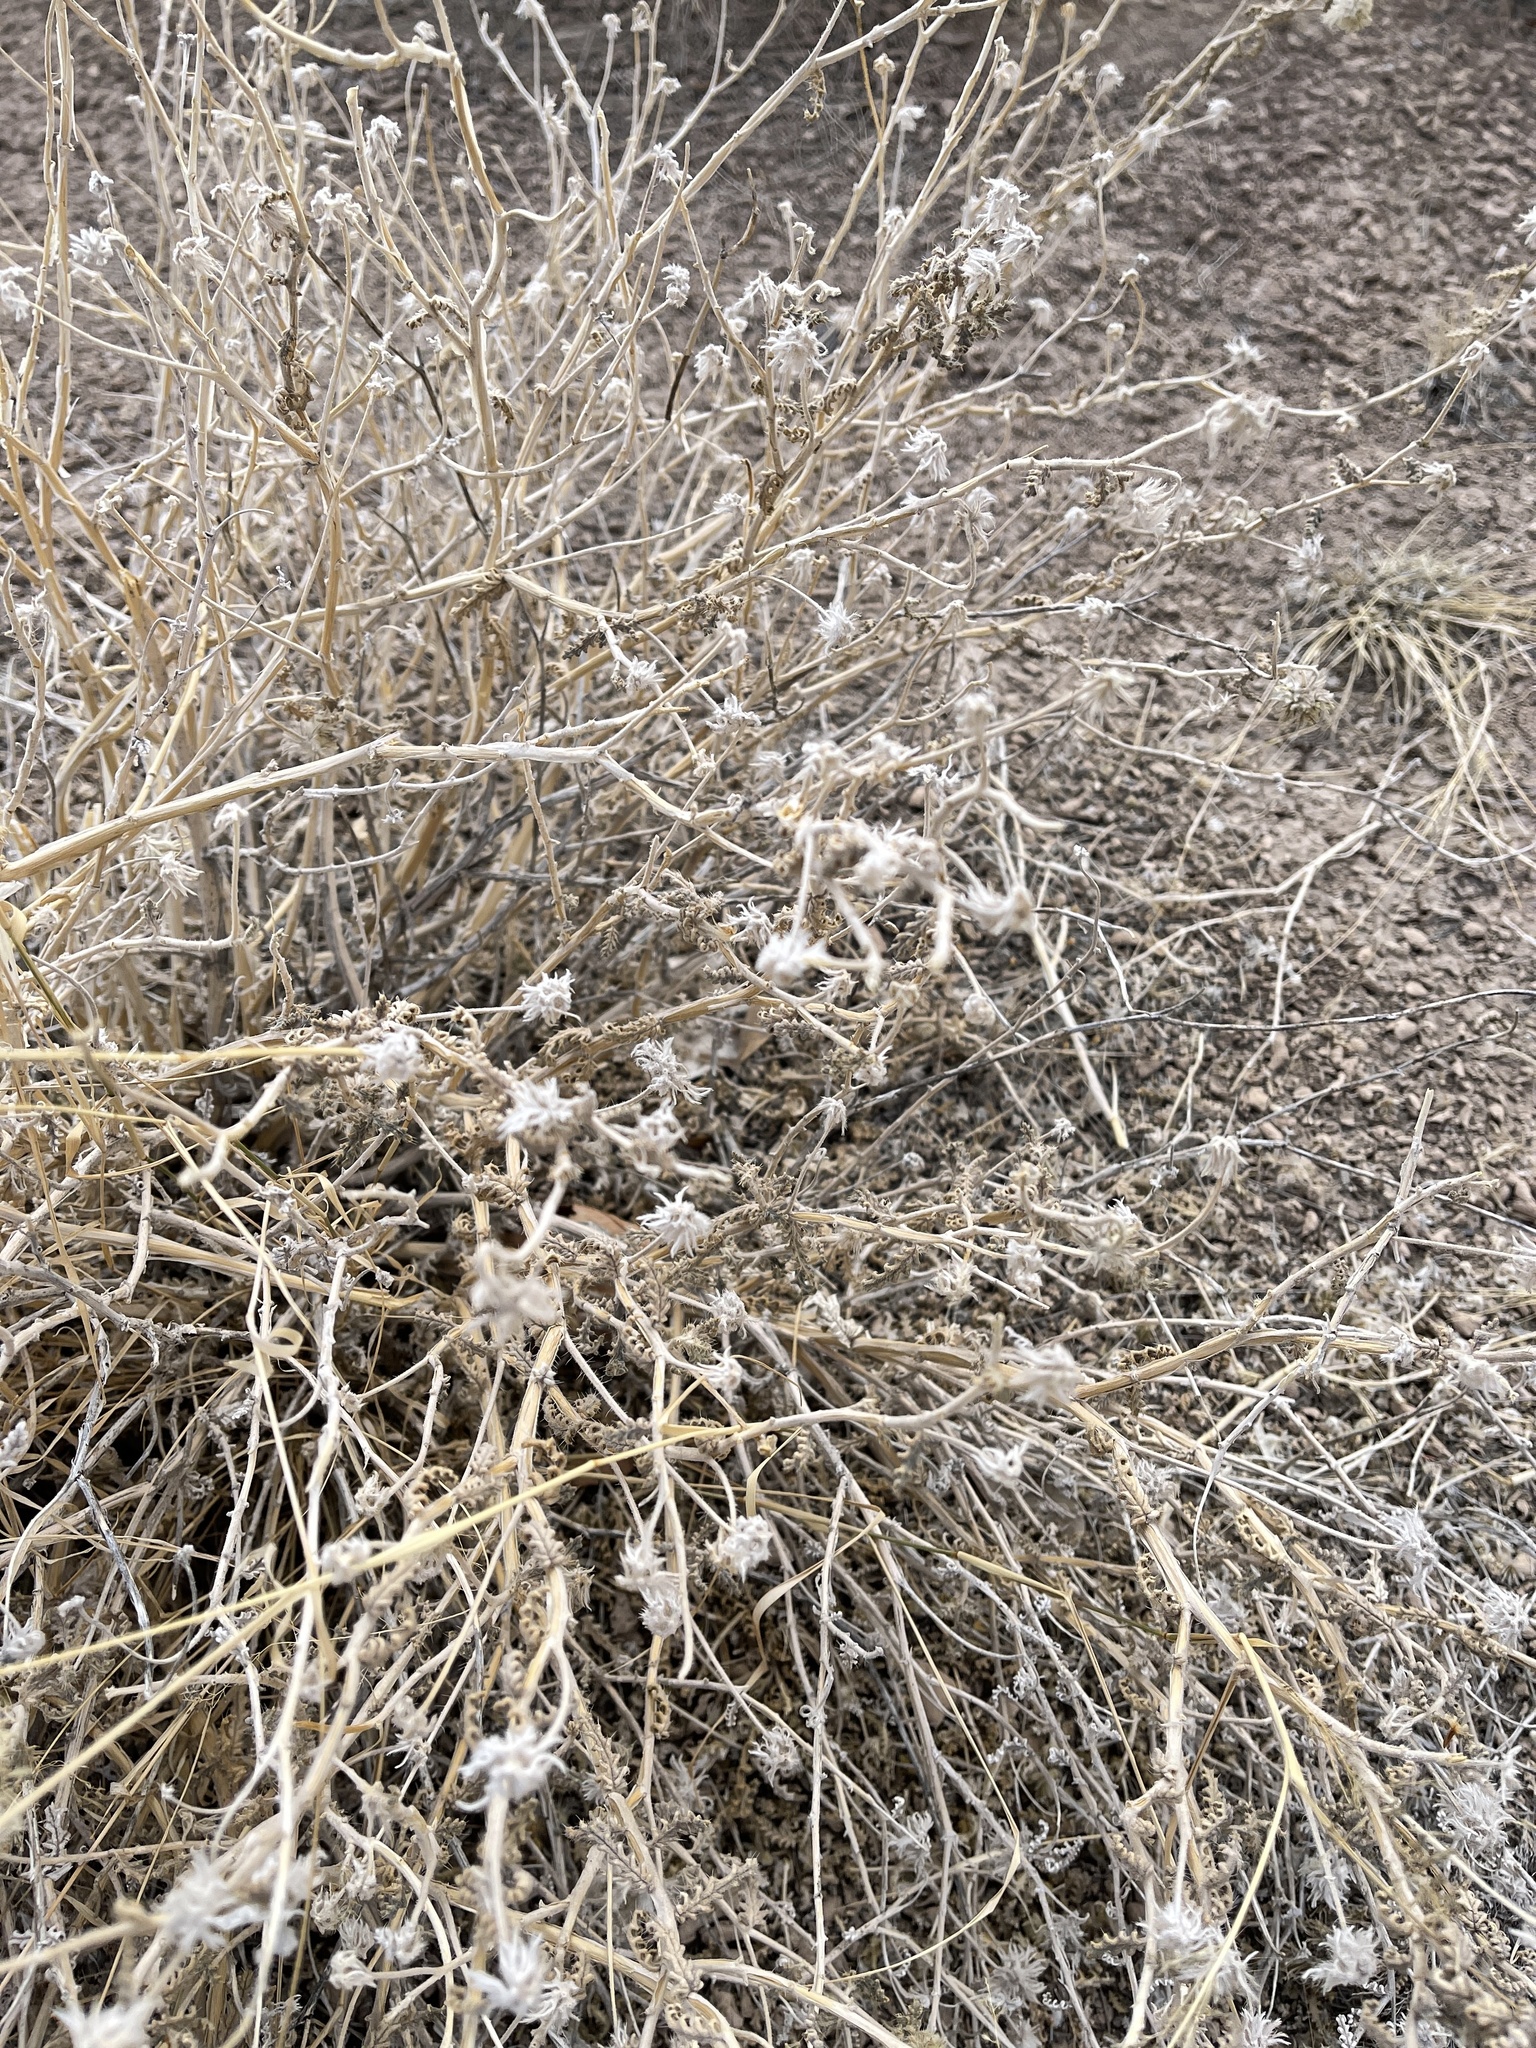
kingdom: Plantae
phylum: Tracheophyta
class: Magnoliopsida
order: Cornales
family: Loasaceae
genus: Cevallia
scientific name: Cevallia sinuata
